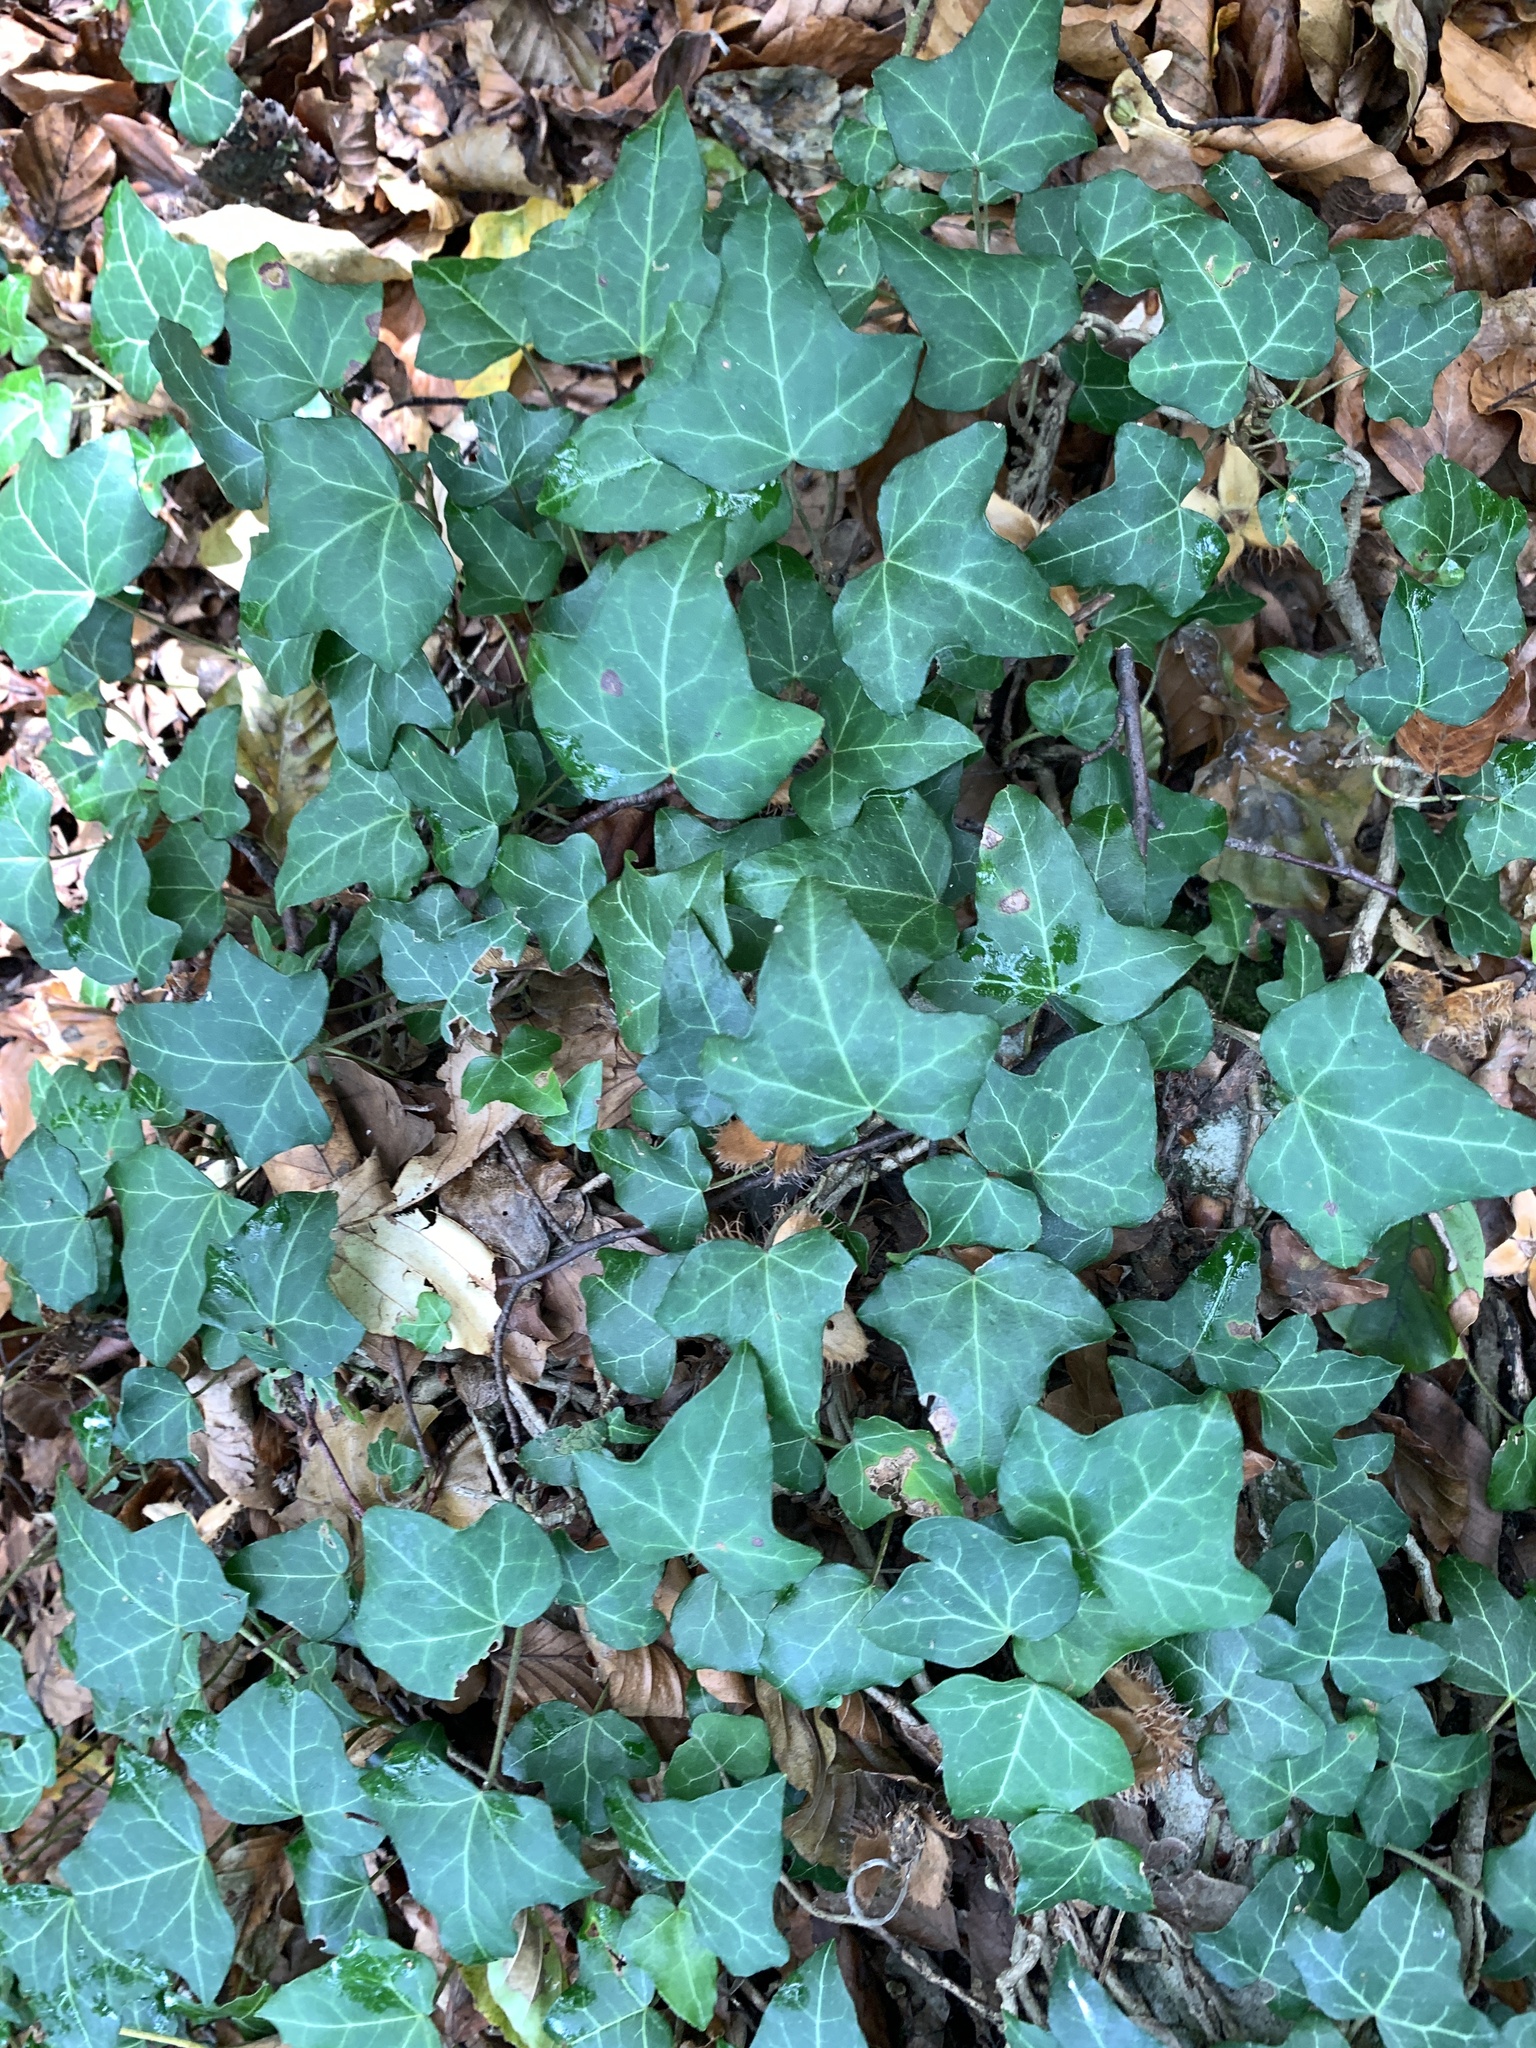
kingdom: Plantae
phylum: Tracheophyta
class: Magnoliopsida
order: Apiales
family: Araliaceae
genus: Hedera
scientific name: Hedera helix
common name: Ivy
